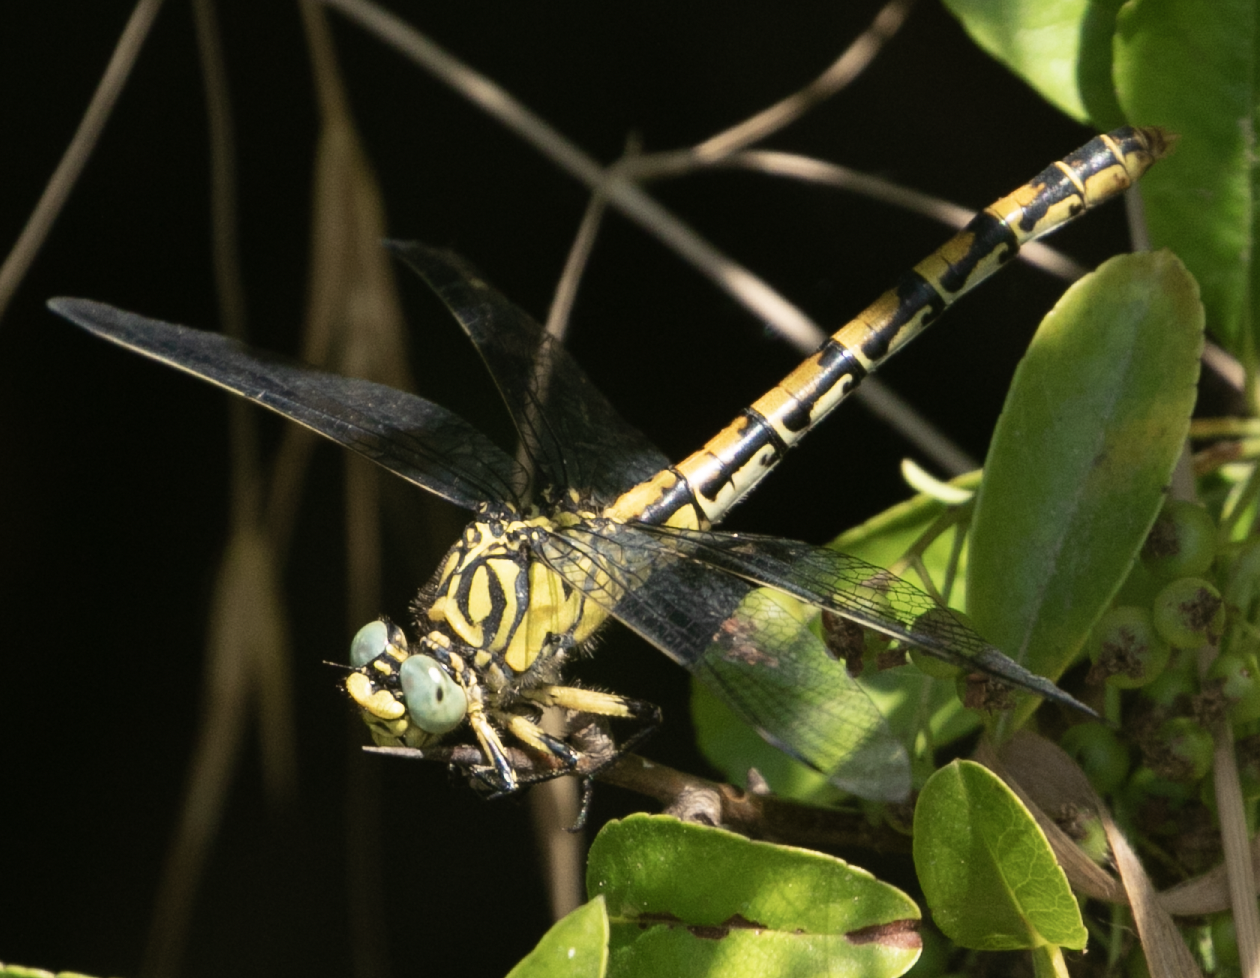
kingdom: Animalia
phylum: Arthropoda
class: Insecta
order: Odonata
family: Gomphidae
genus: Onychogomphus
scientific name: Onychogomphus forcipatus
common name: Small pincertail
